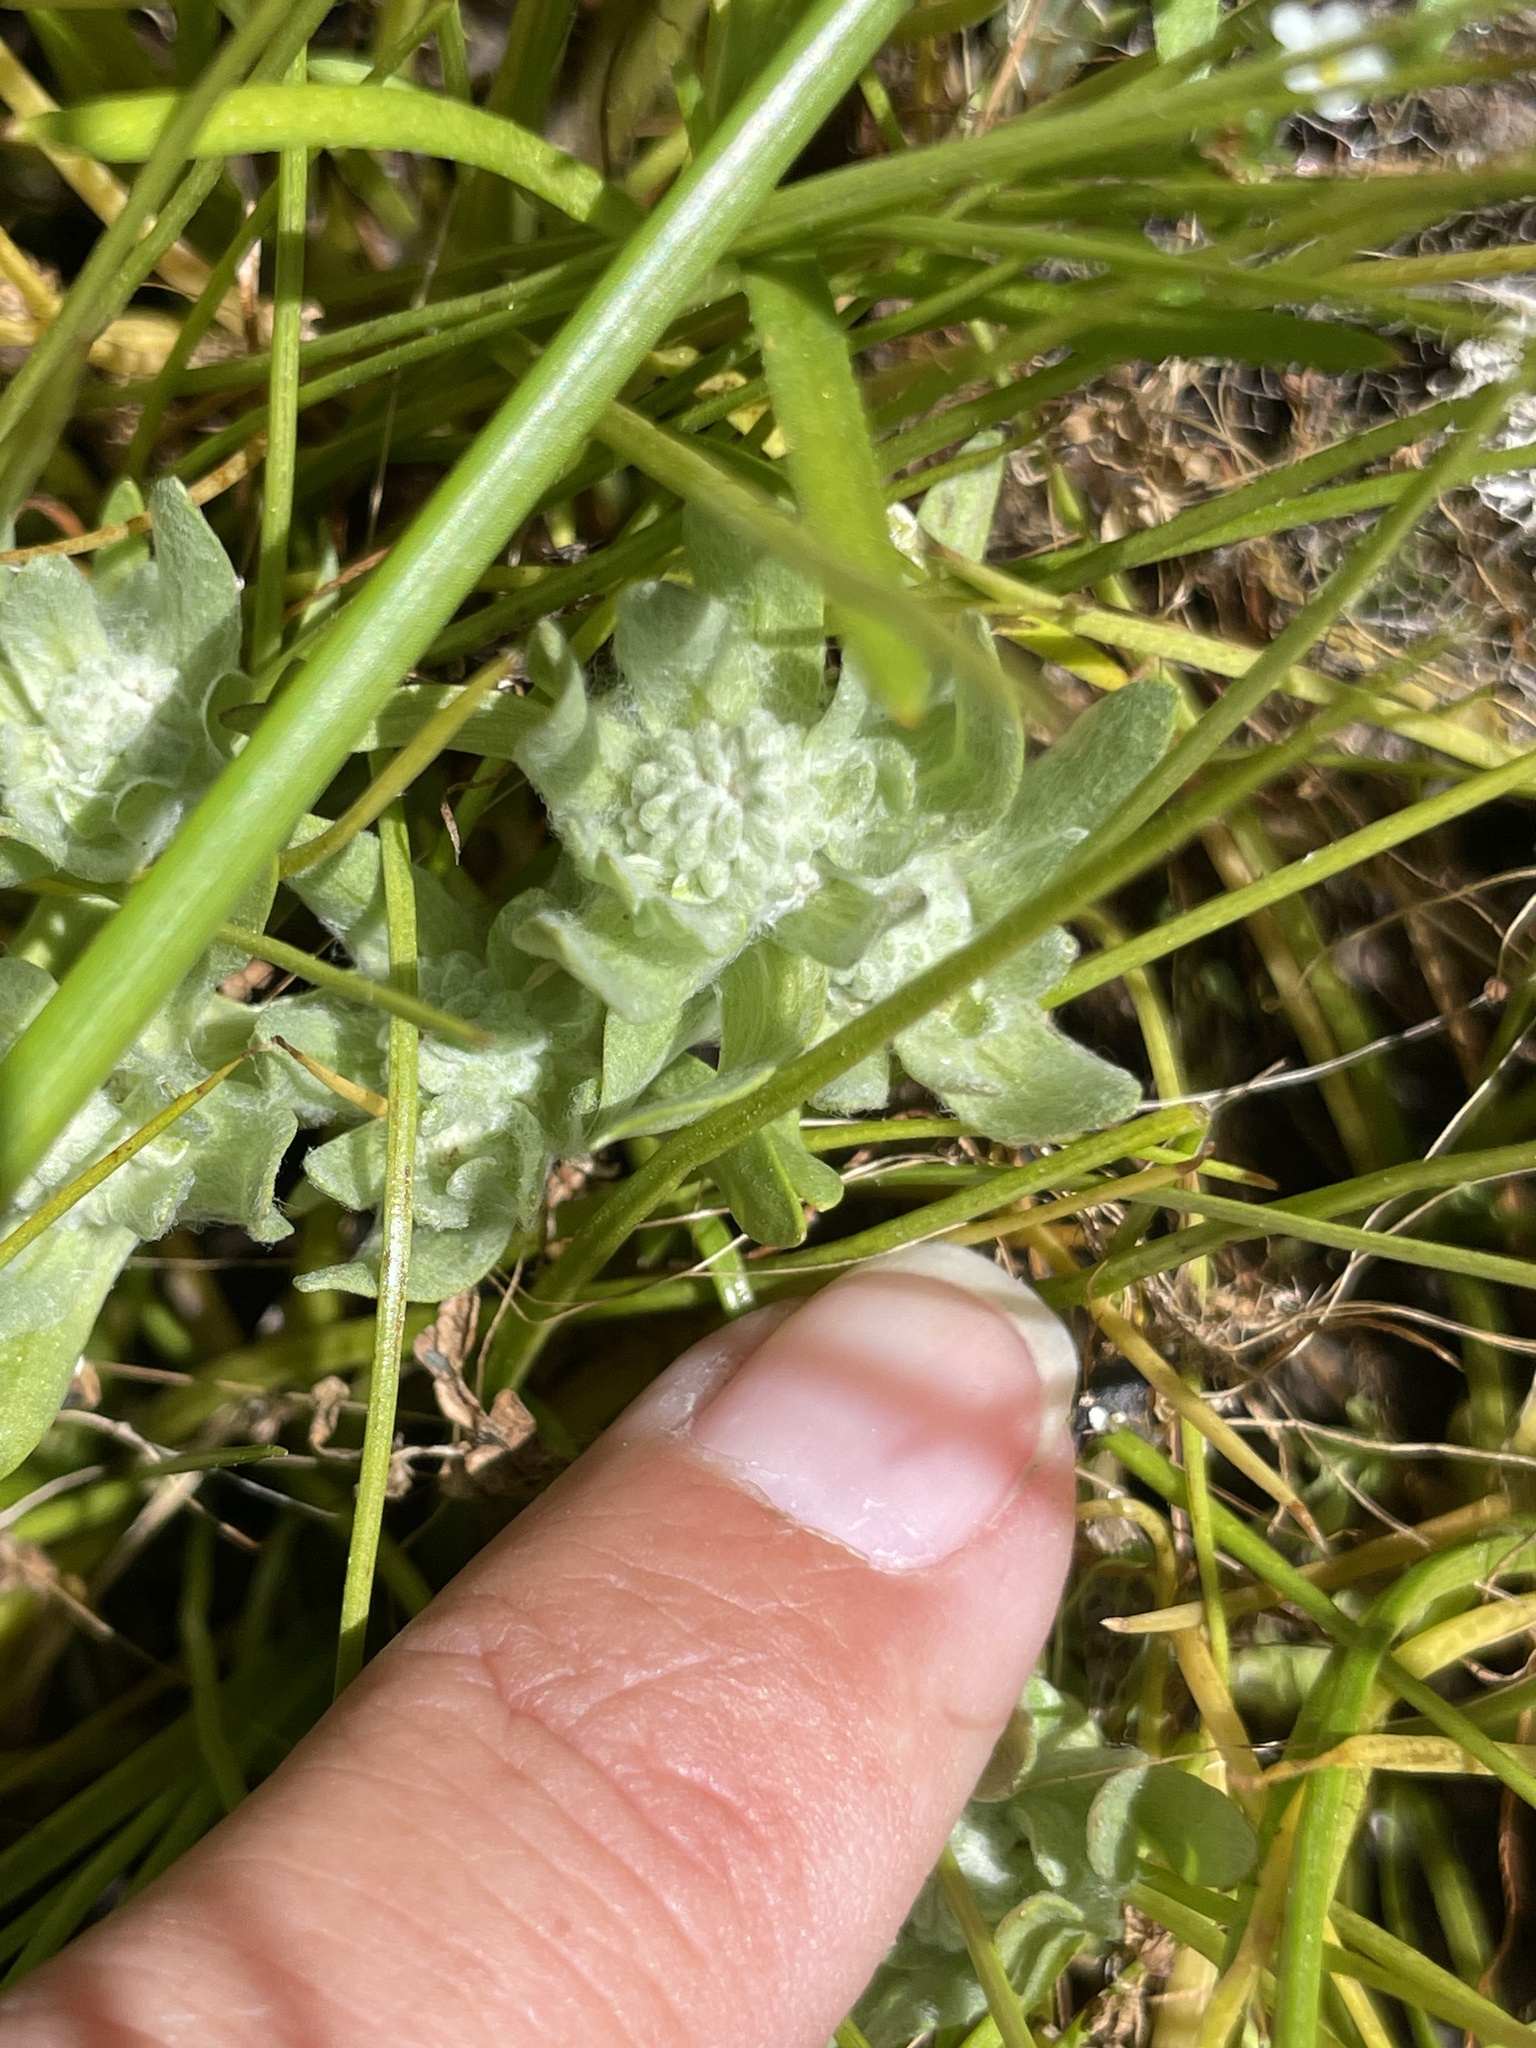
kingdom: Plantae
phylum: Tracheophyta
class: Magnoliopsida
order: Asterales
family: Asteraceae
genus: Psilocarphus
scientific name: Psilocarphus brevissimus
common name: Dwarf woollyheads
